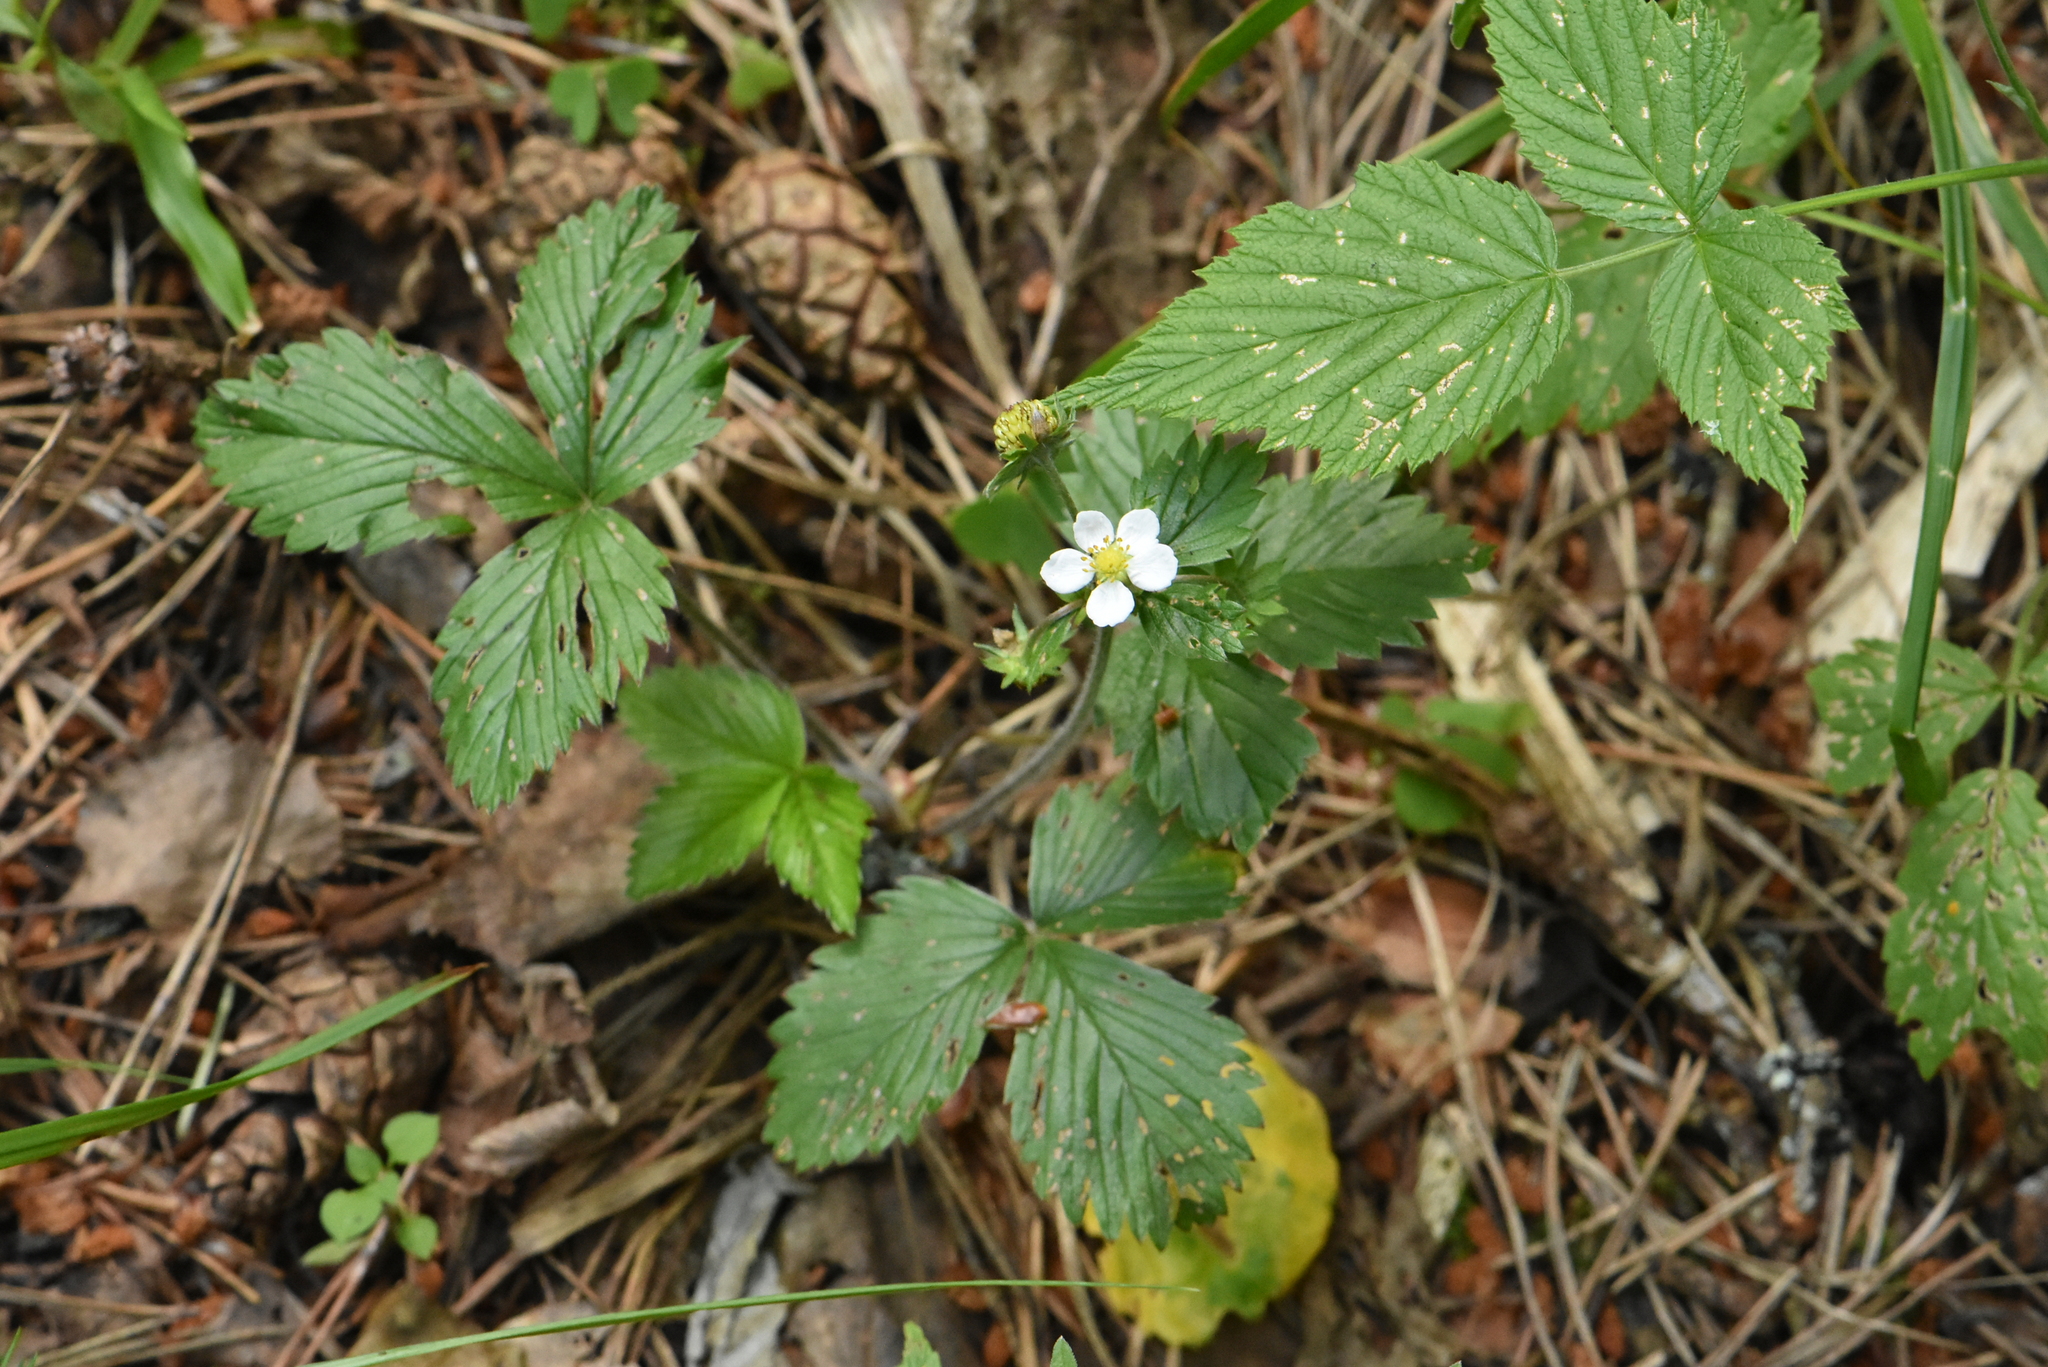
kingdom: Plantae
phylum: Tracheophyta
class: Magnoliopsida
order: Rosales
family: Rosaceae
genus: Fragaria
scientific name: Fragaria vesca
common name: Wild strawberry
